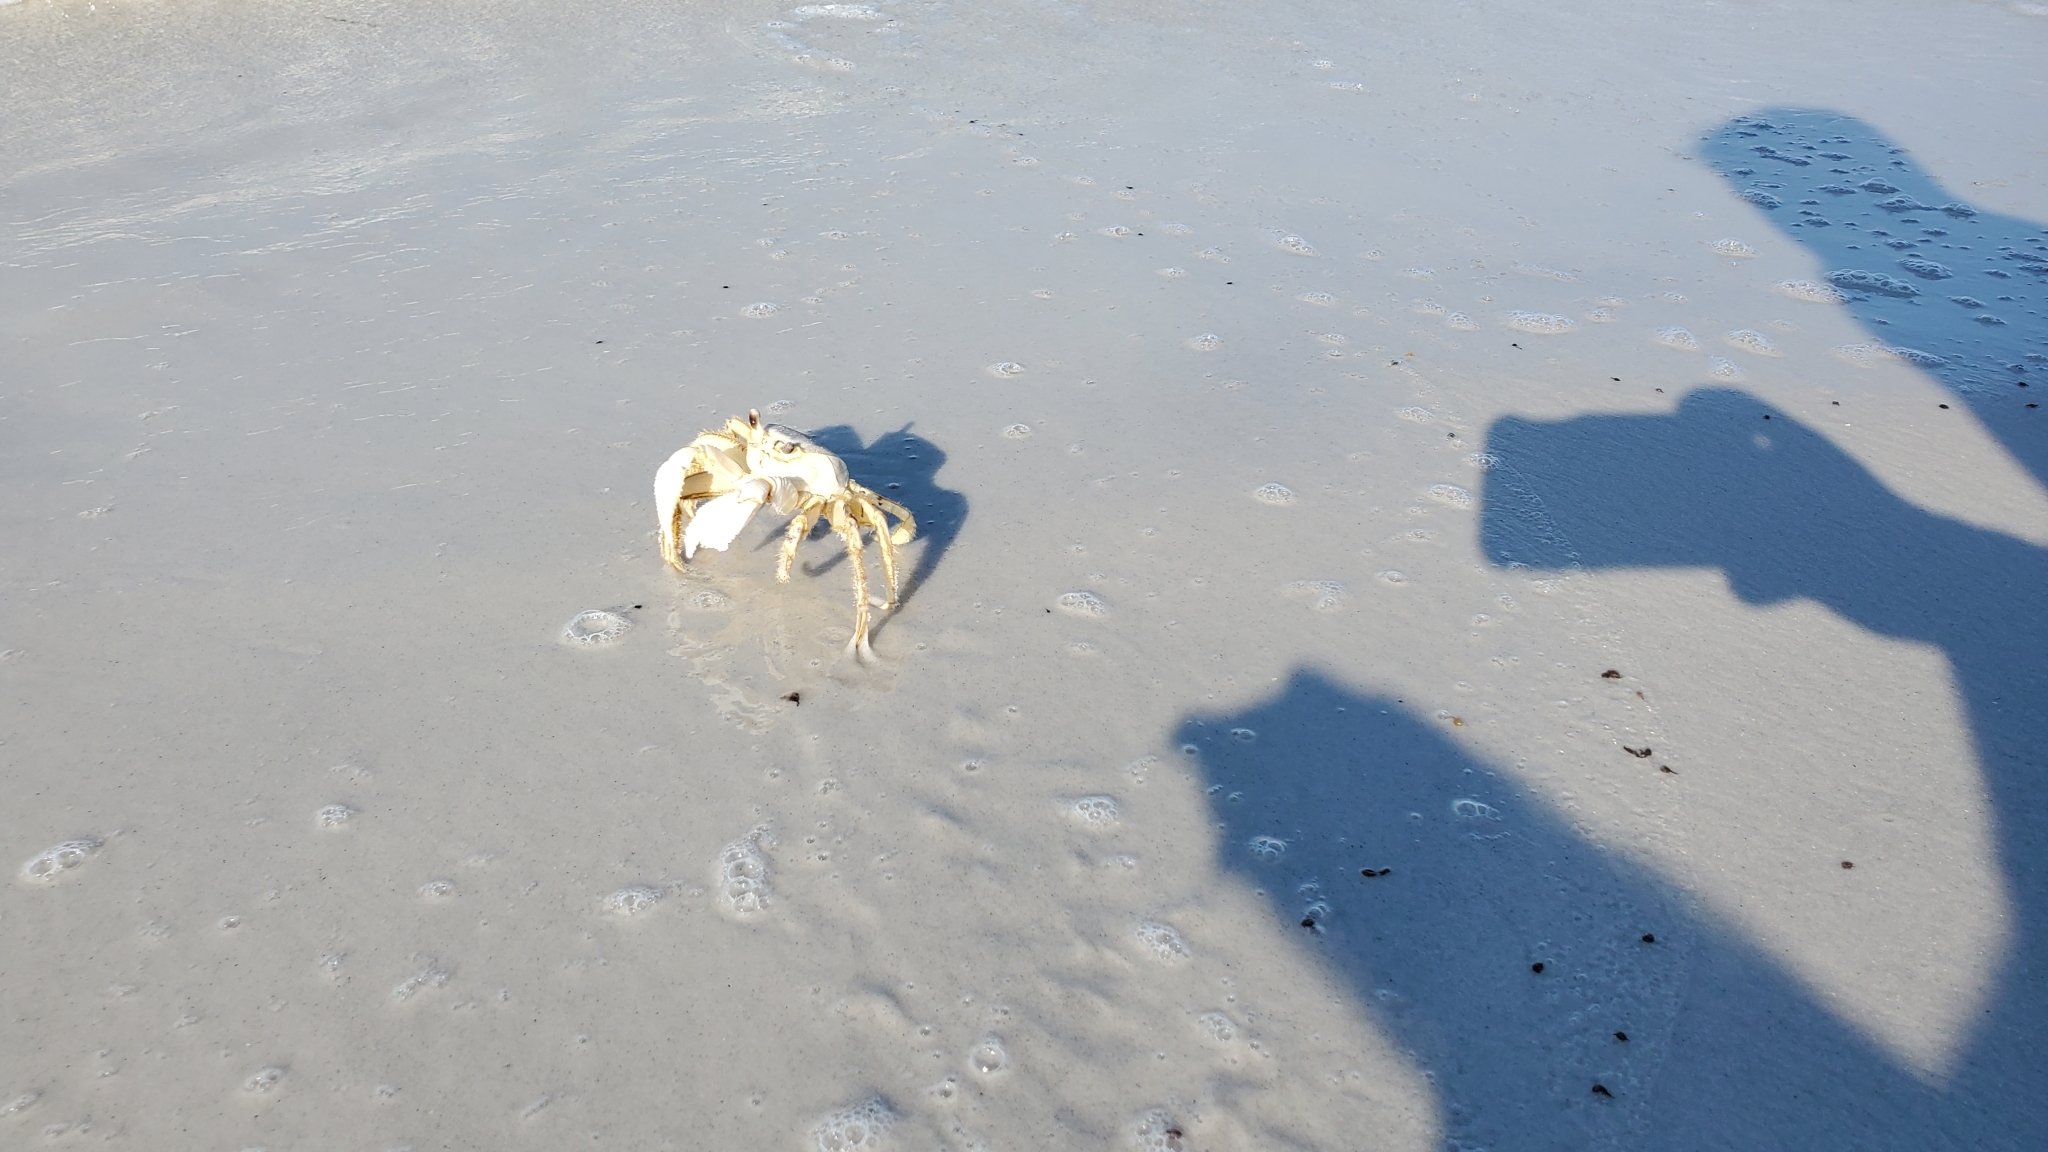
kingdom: Animalia
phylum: Arthropoda
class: Malacostraca
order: Decapoda
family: Ocypodidae
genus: Ocypode
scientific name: Ocypode quadrata
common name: Ghost crab
